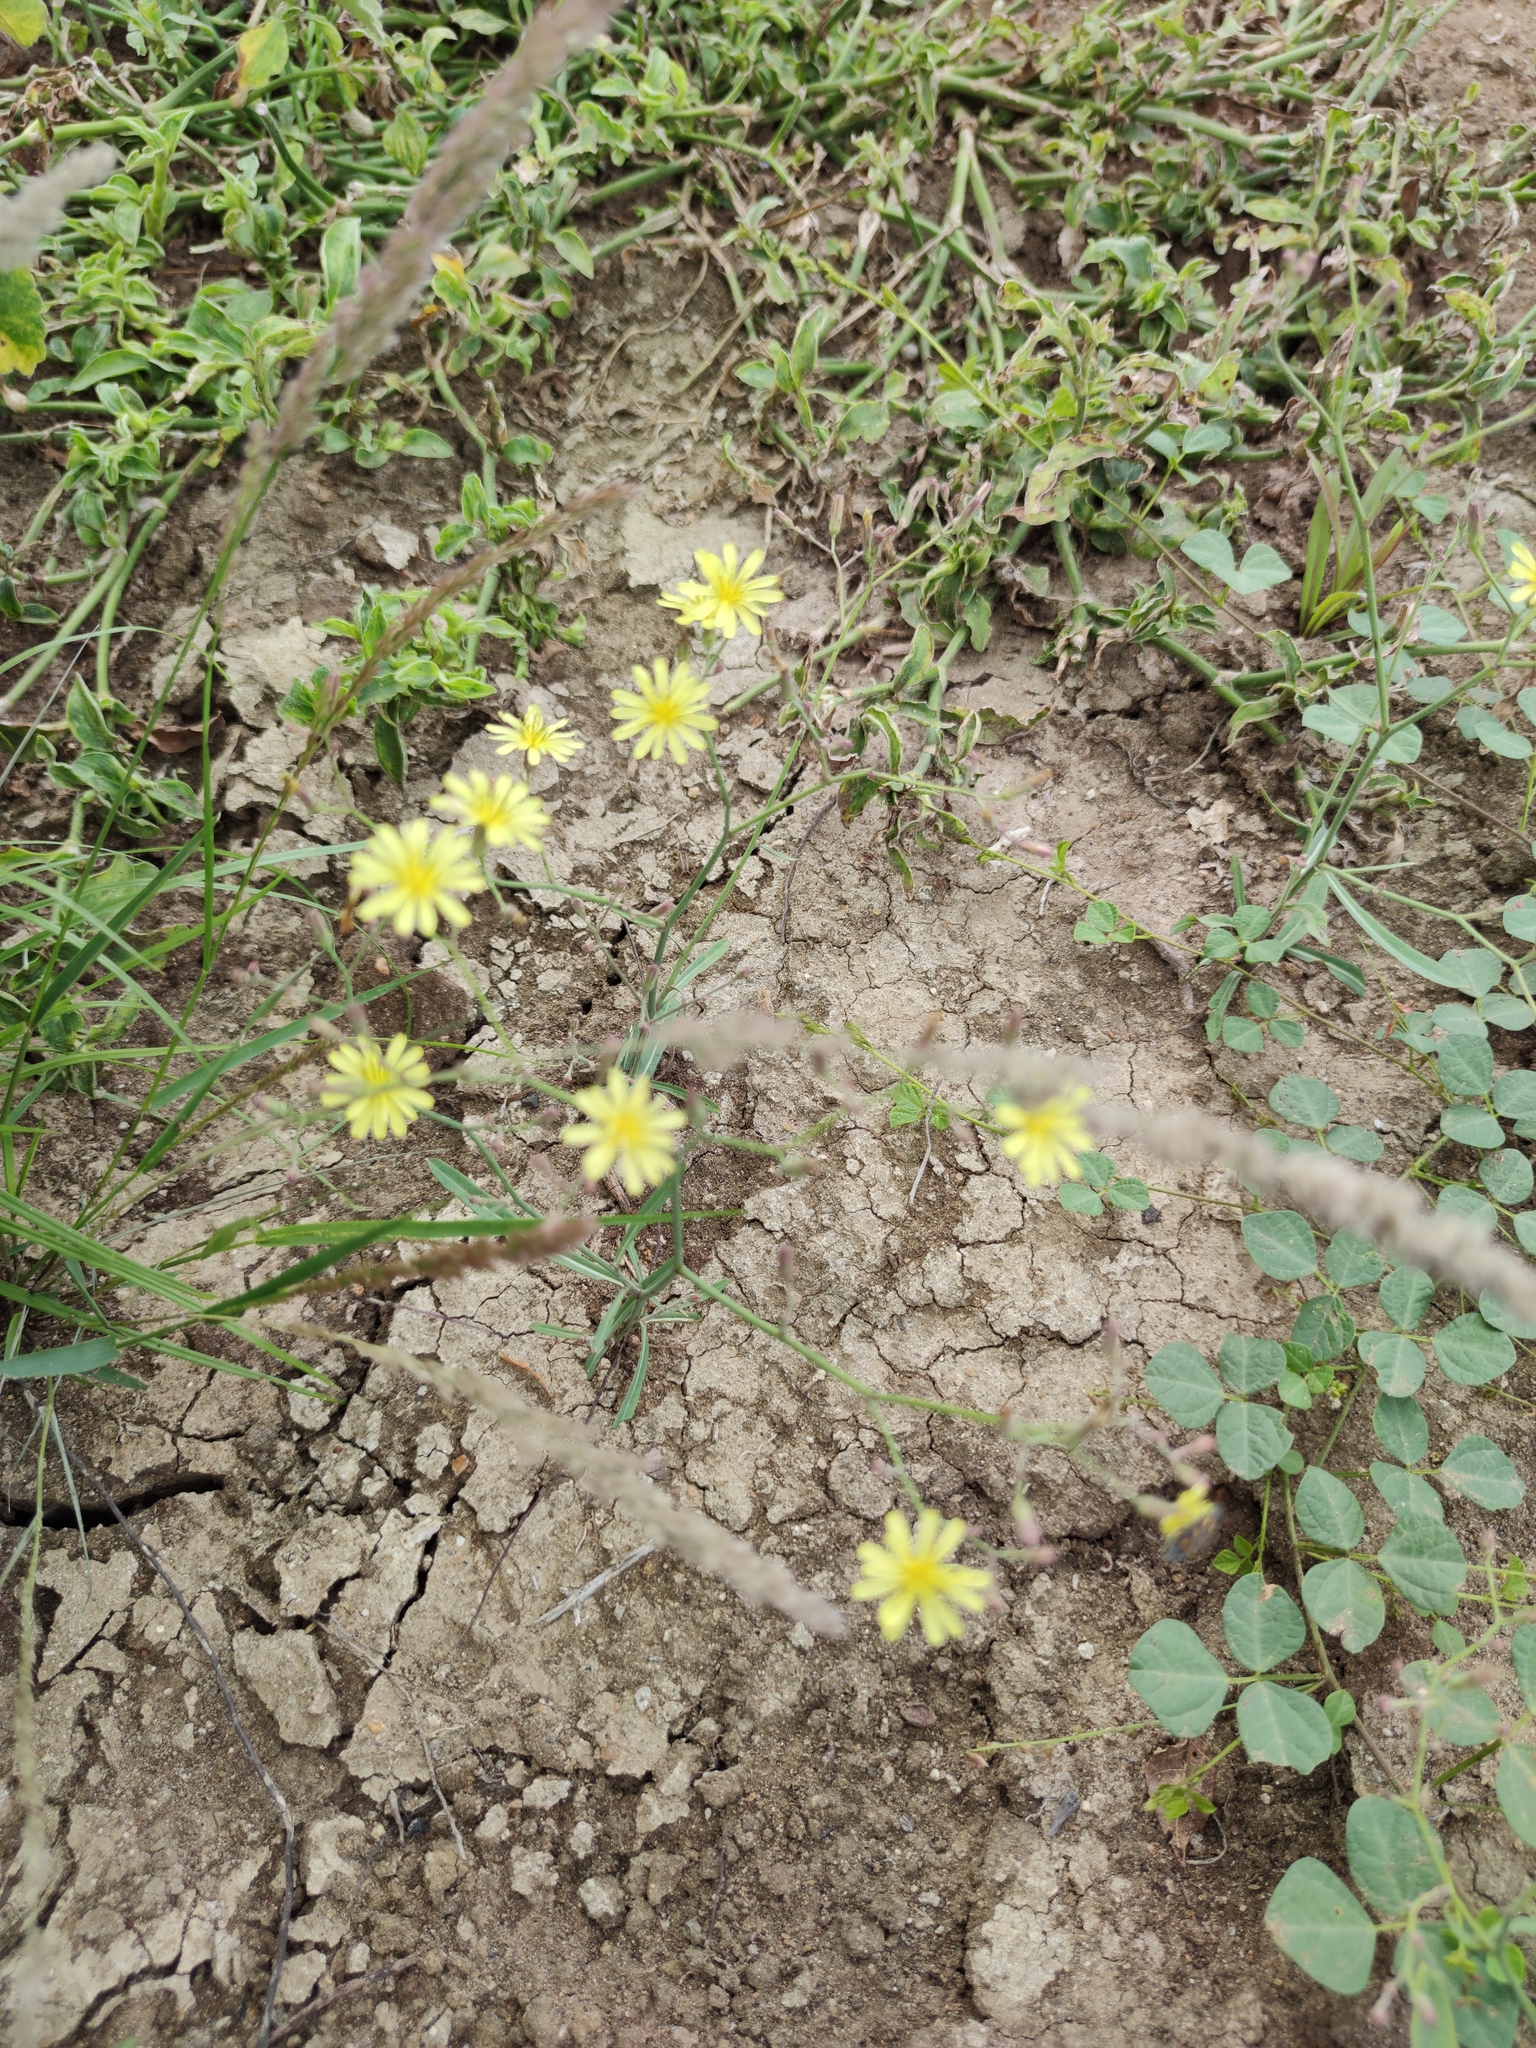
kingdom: Plantae
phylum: Tracheophyta
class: Magnoliopsida
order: Asterales
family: Asteraceae
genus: Launaea
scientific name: Launaea cornuta
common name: Bitter-lettuce
